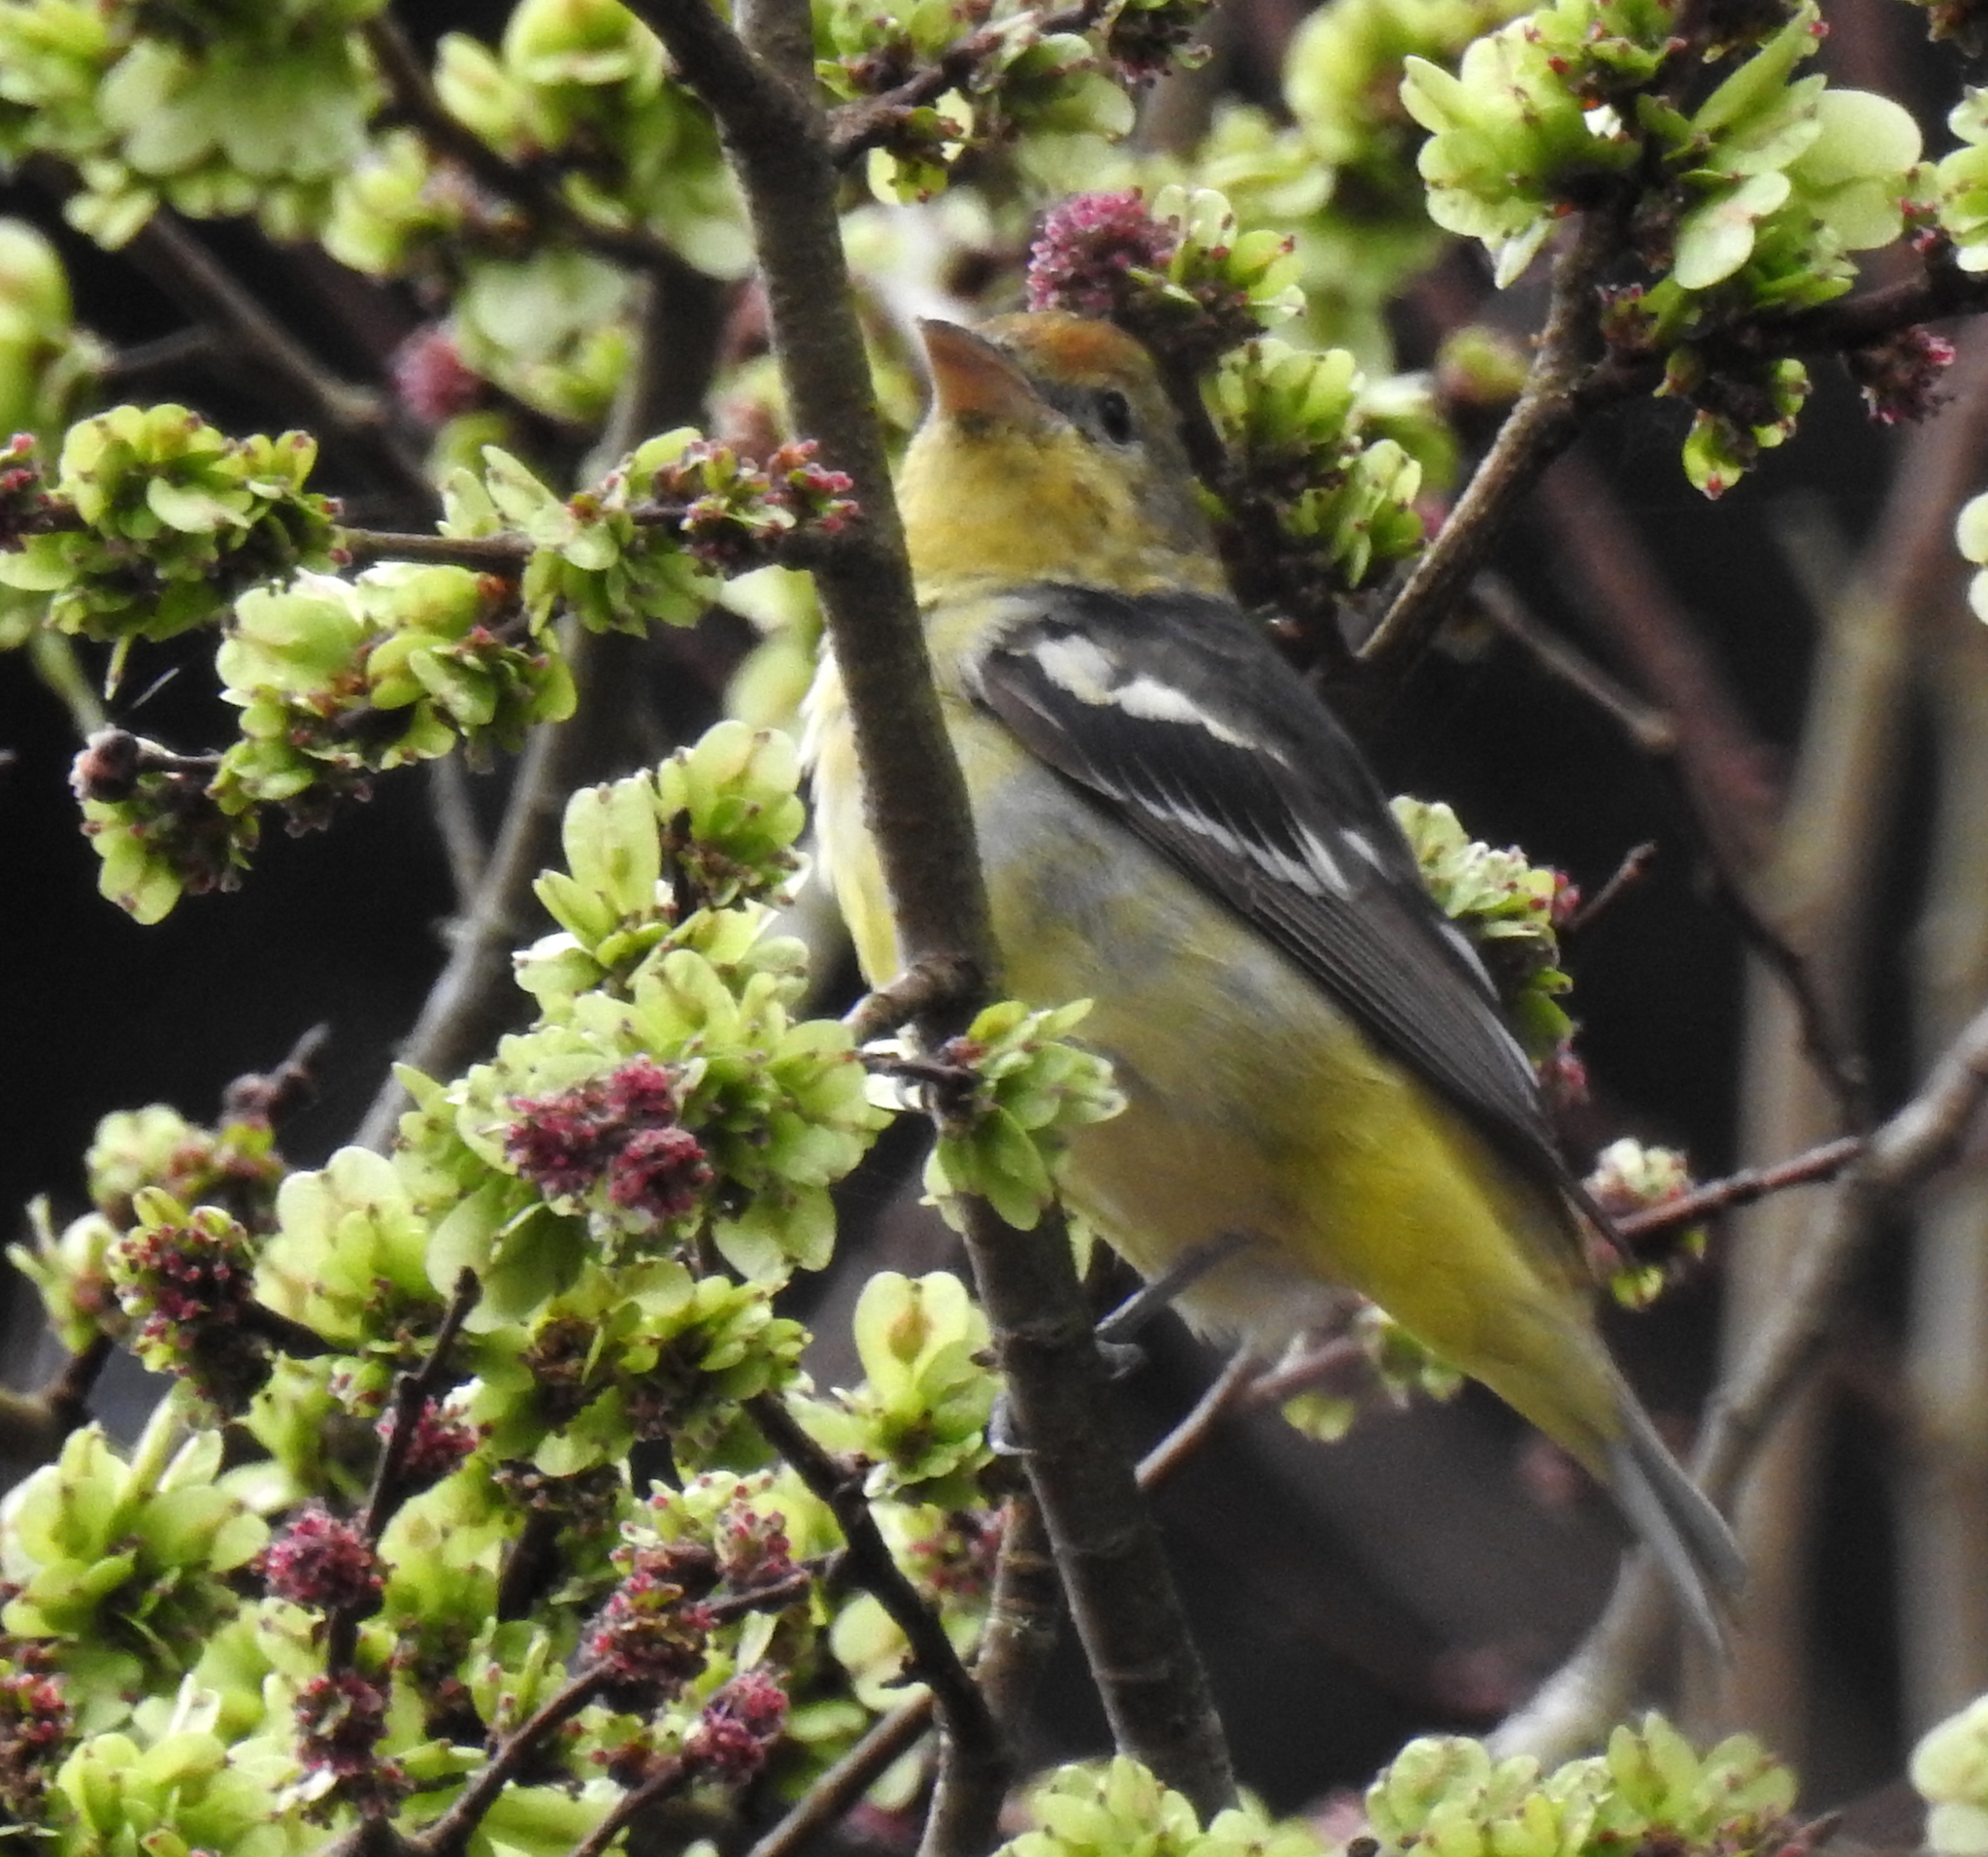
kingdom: Animalia
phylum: Chordata
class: Aves
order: Passeriformes
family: Cardinalidae
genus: Piranga
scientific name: Piranga ludoviciana
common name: Western tanager
